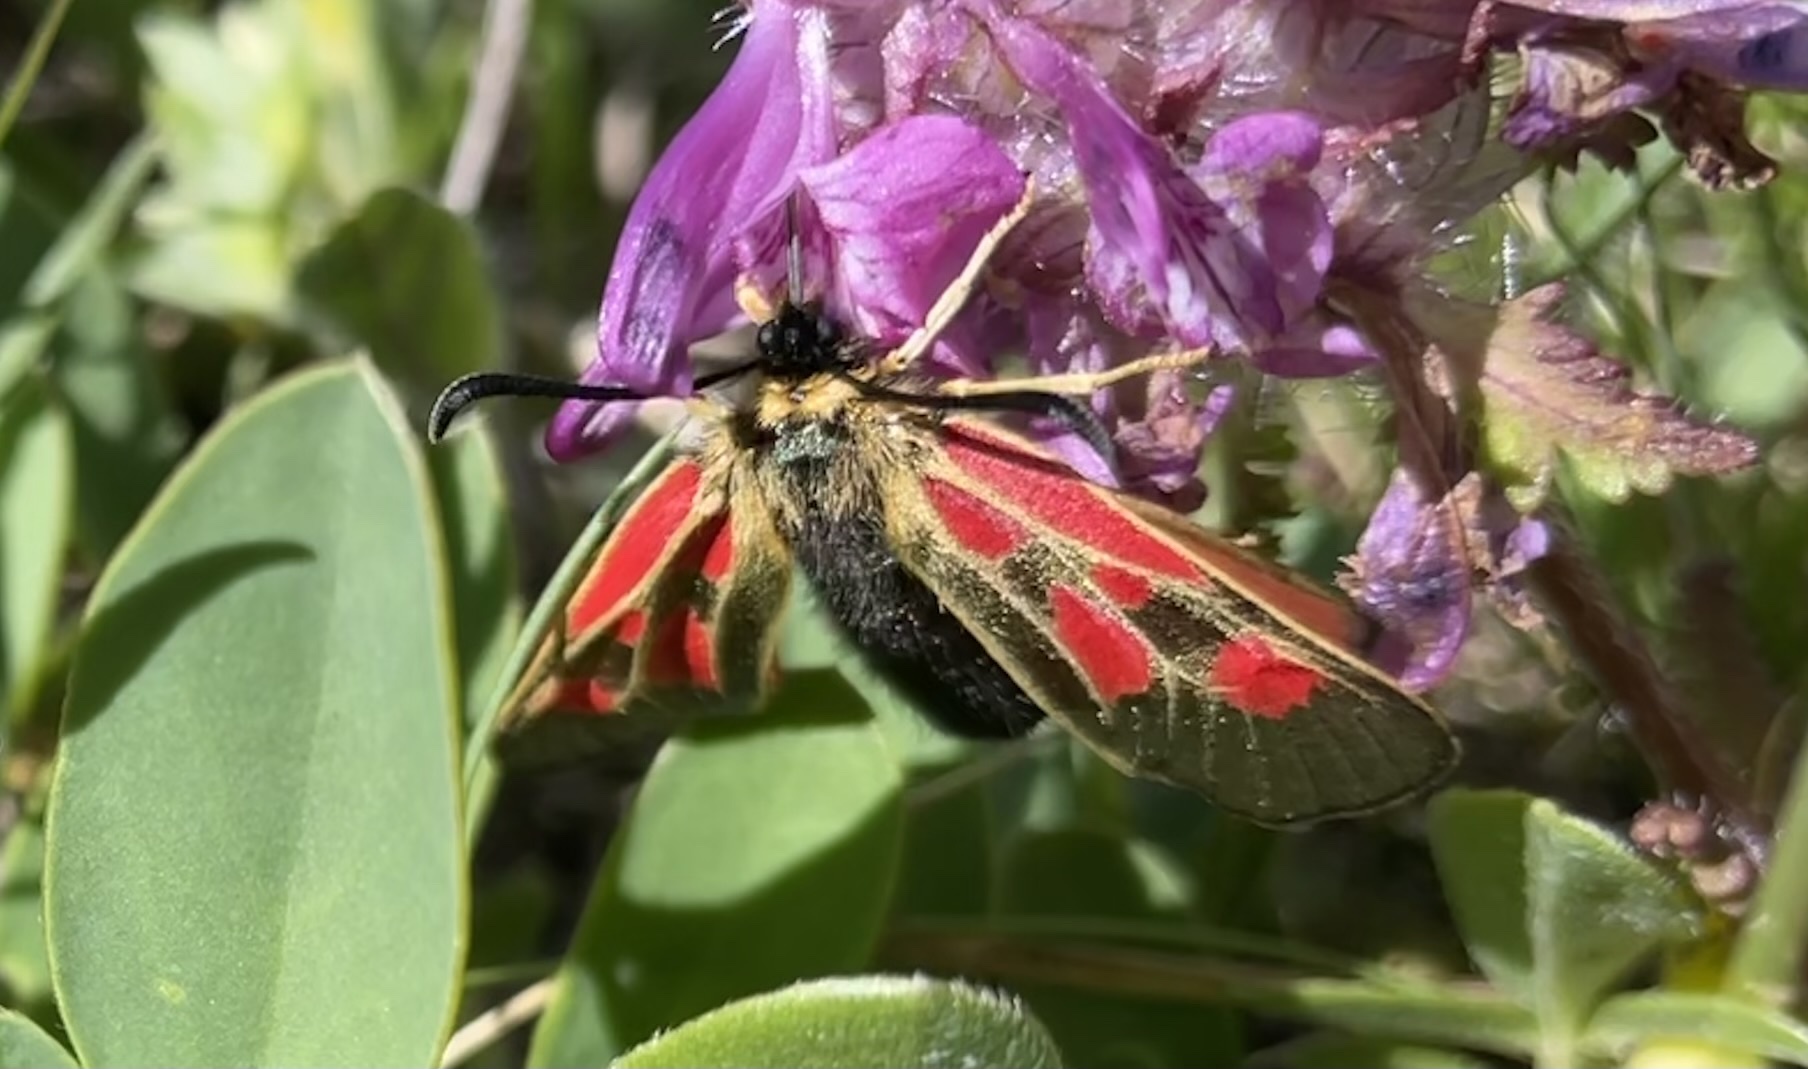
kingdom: Animalia
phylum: Arthropoda
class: Insecta
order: Lepidoptera
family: Zygaenidae
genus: Zygaena
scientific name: Zygaena exulans
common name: Scotch burnet
